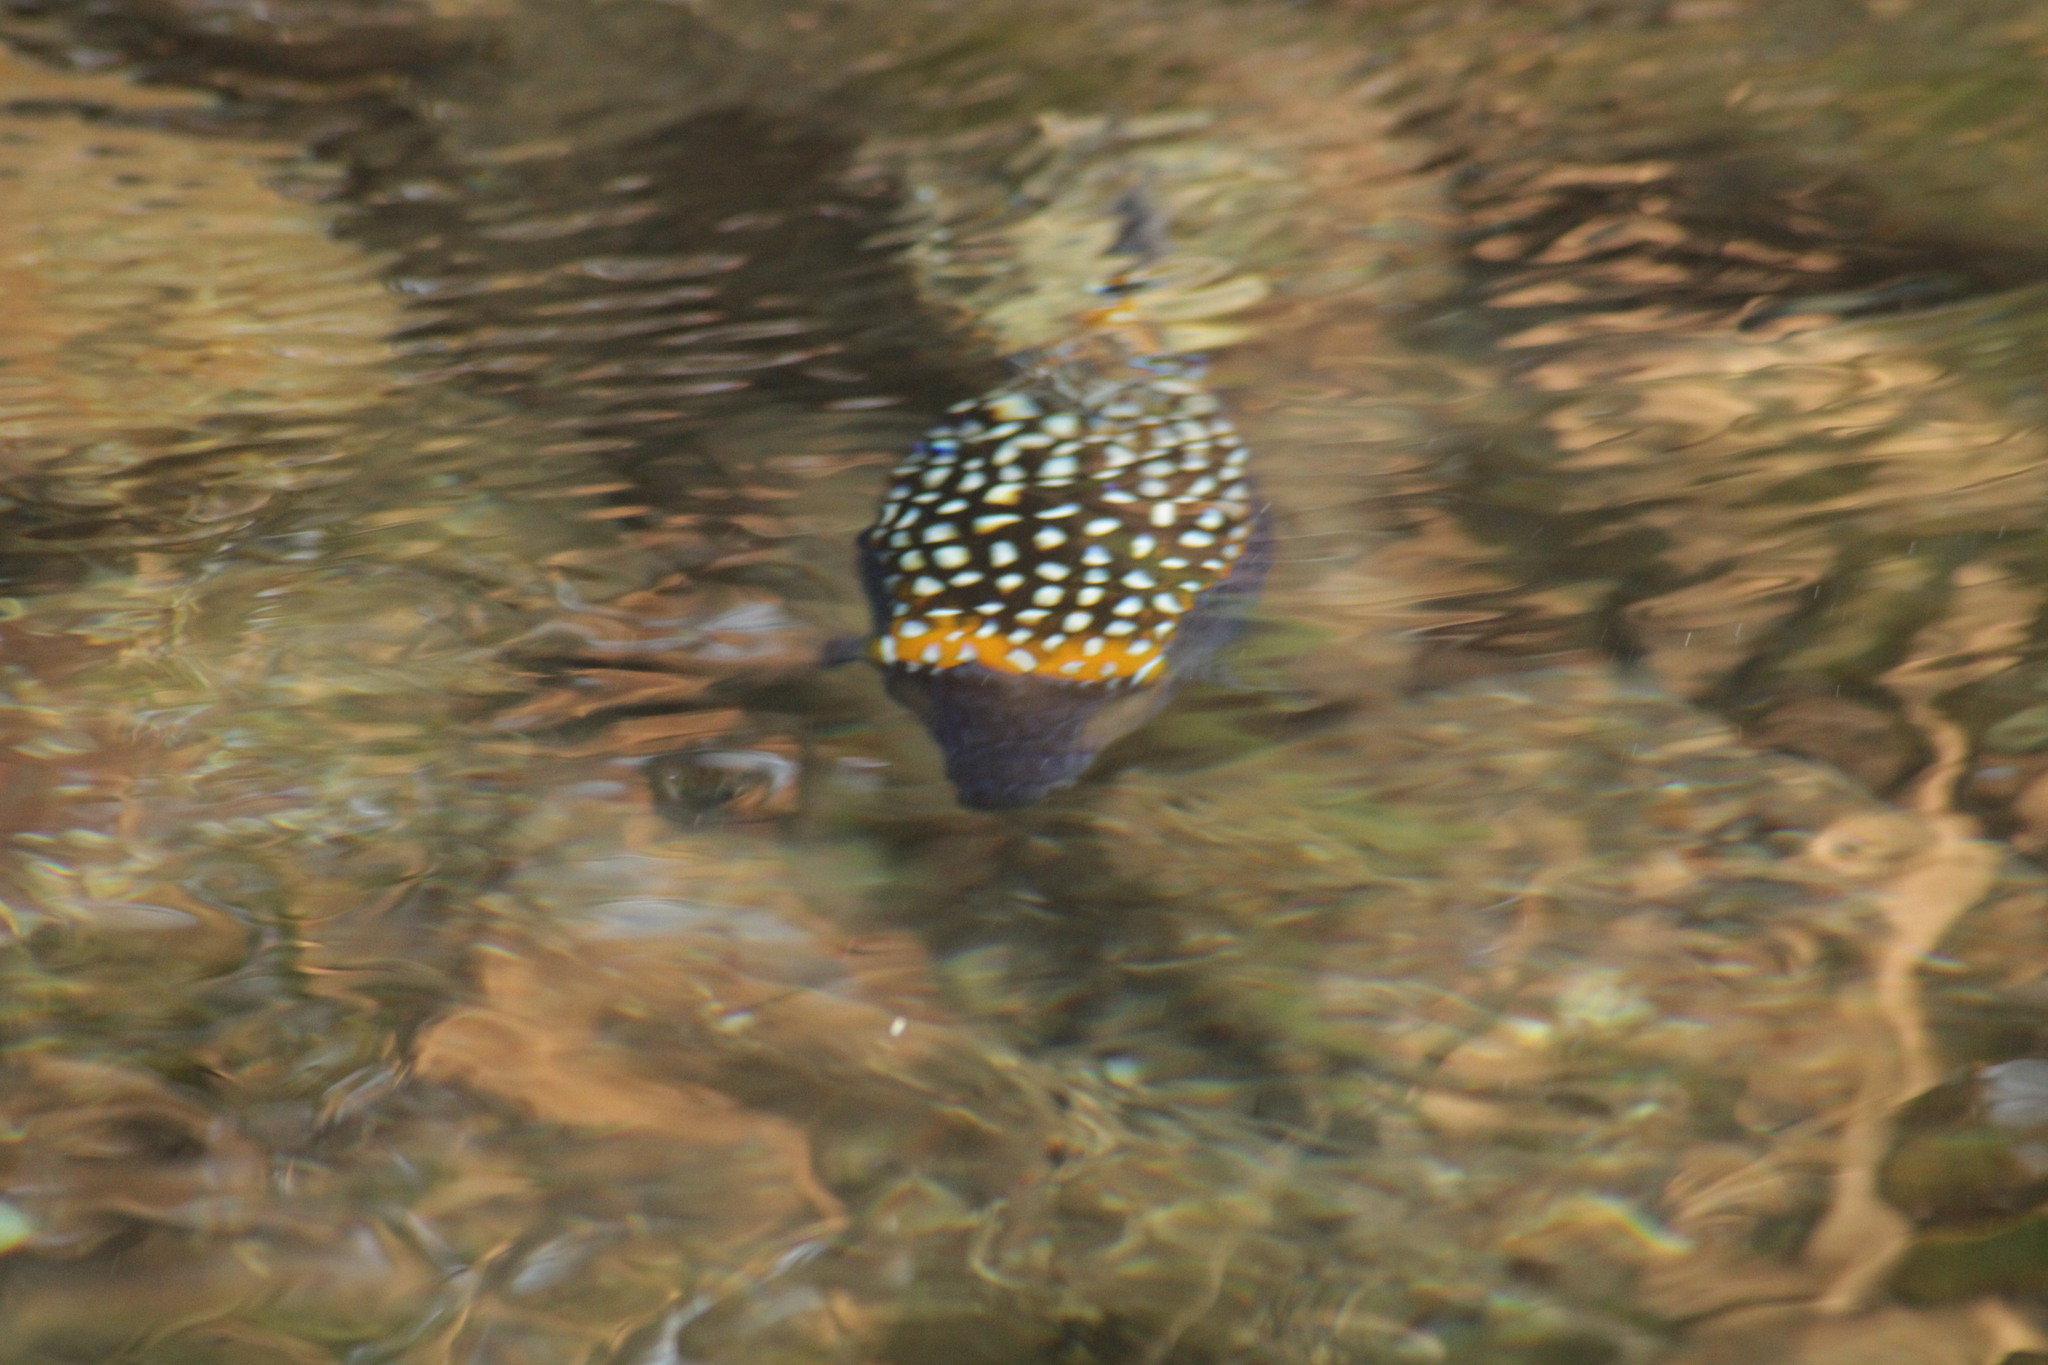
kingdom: Animalia
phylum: Chordata
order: Tetraodontiformes
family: Ostraciidae
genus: Ostracion
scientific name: Ostracion meleagris
